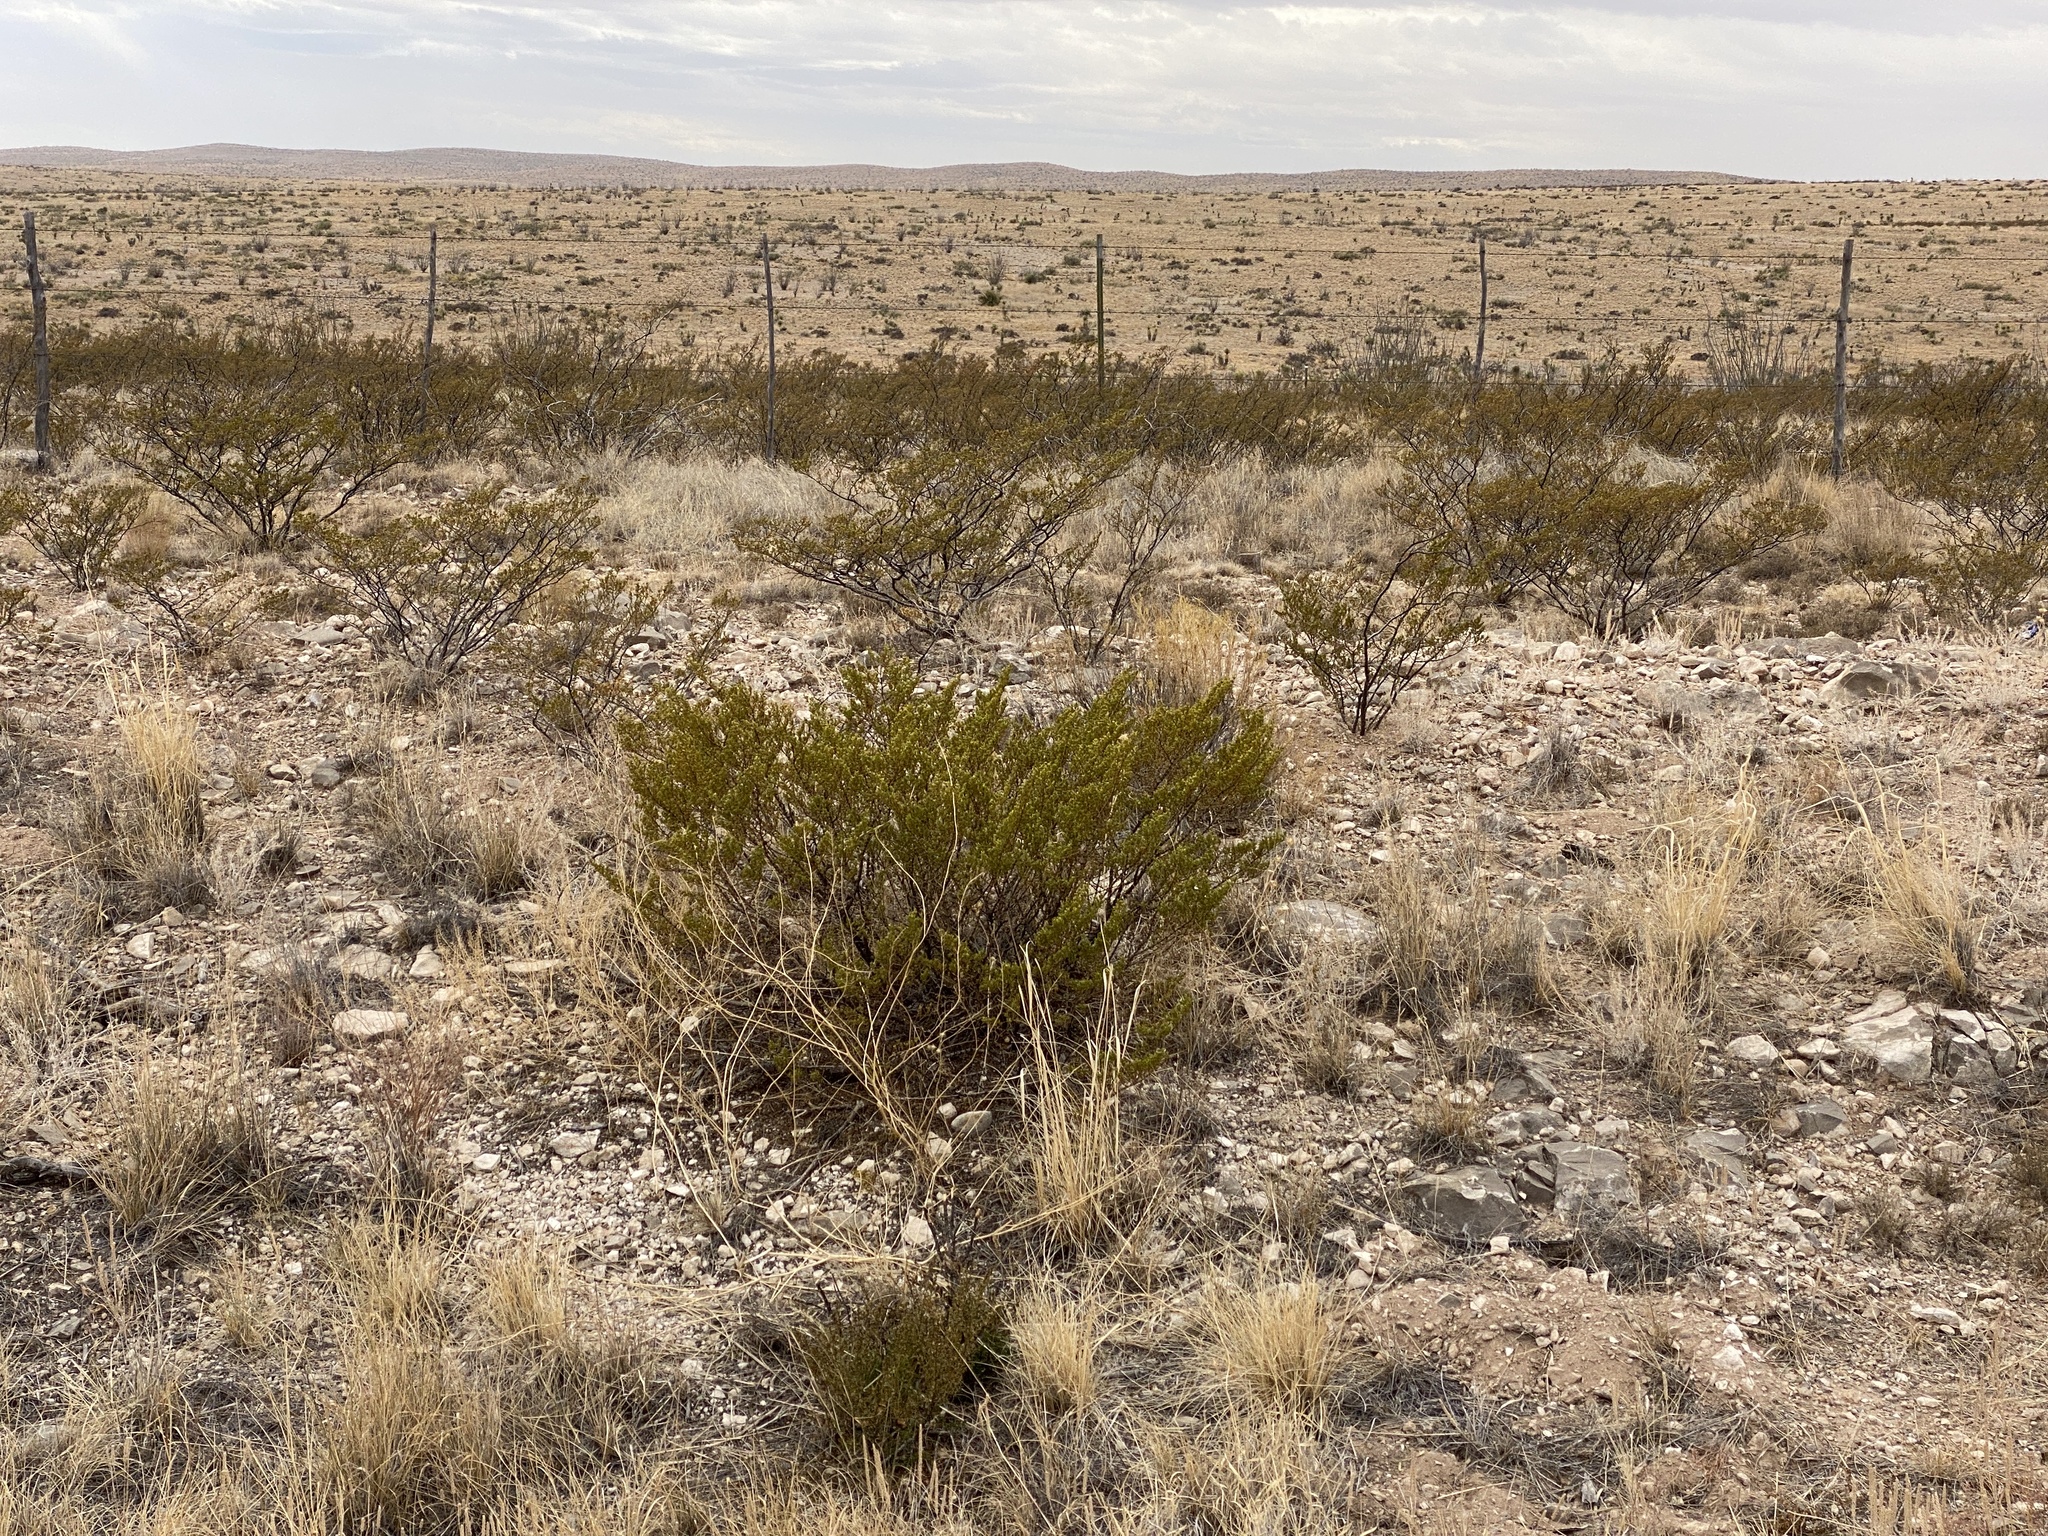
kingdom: Plantae
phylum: Tracheophyta
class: Magnoliopsida
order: Zygophyllales
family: Zygophyllaceae
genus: Larrea
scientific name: Larrea tridentata
